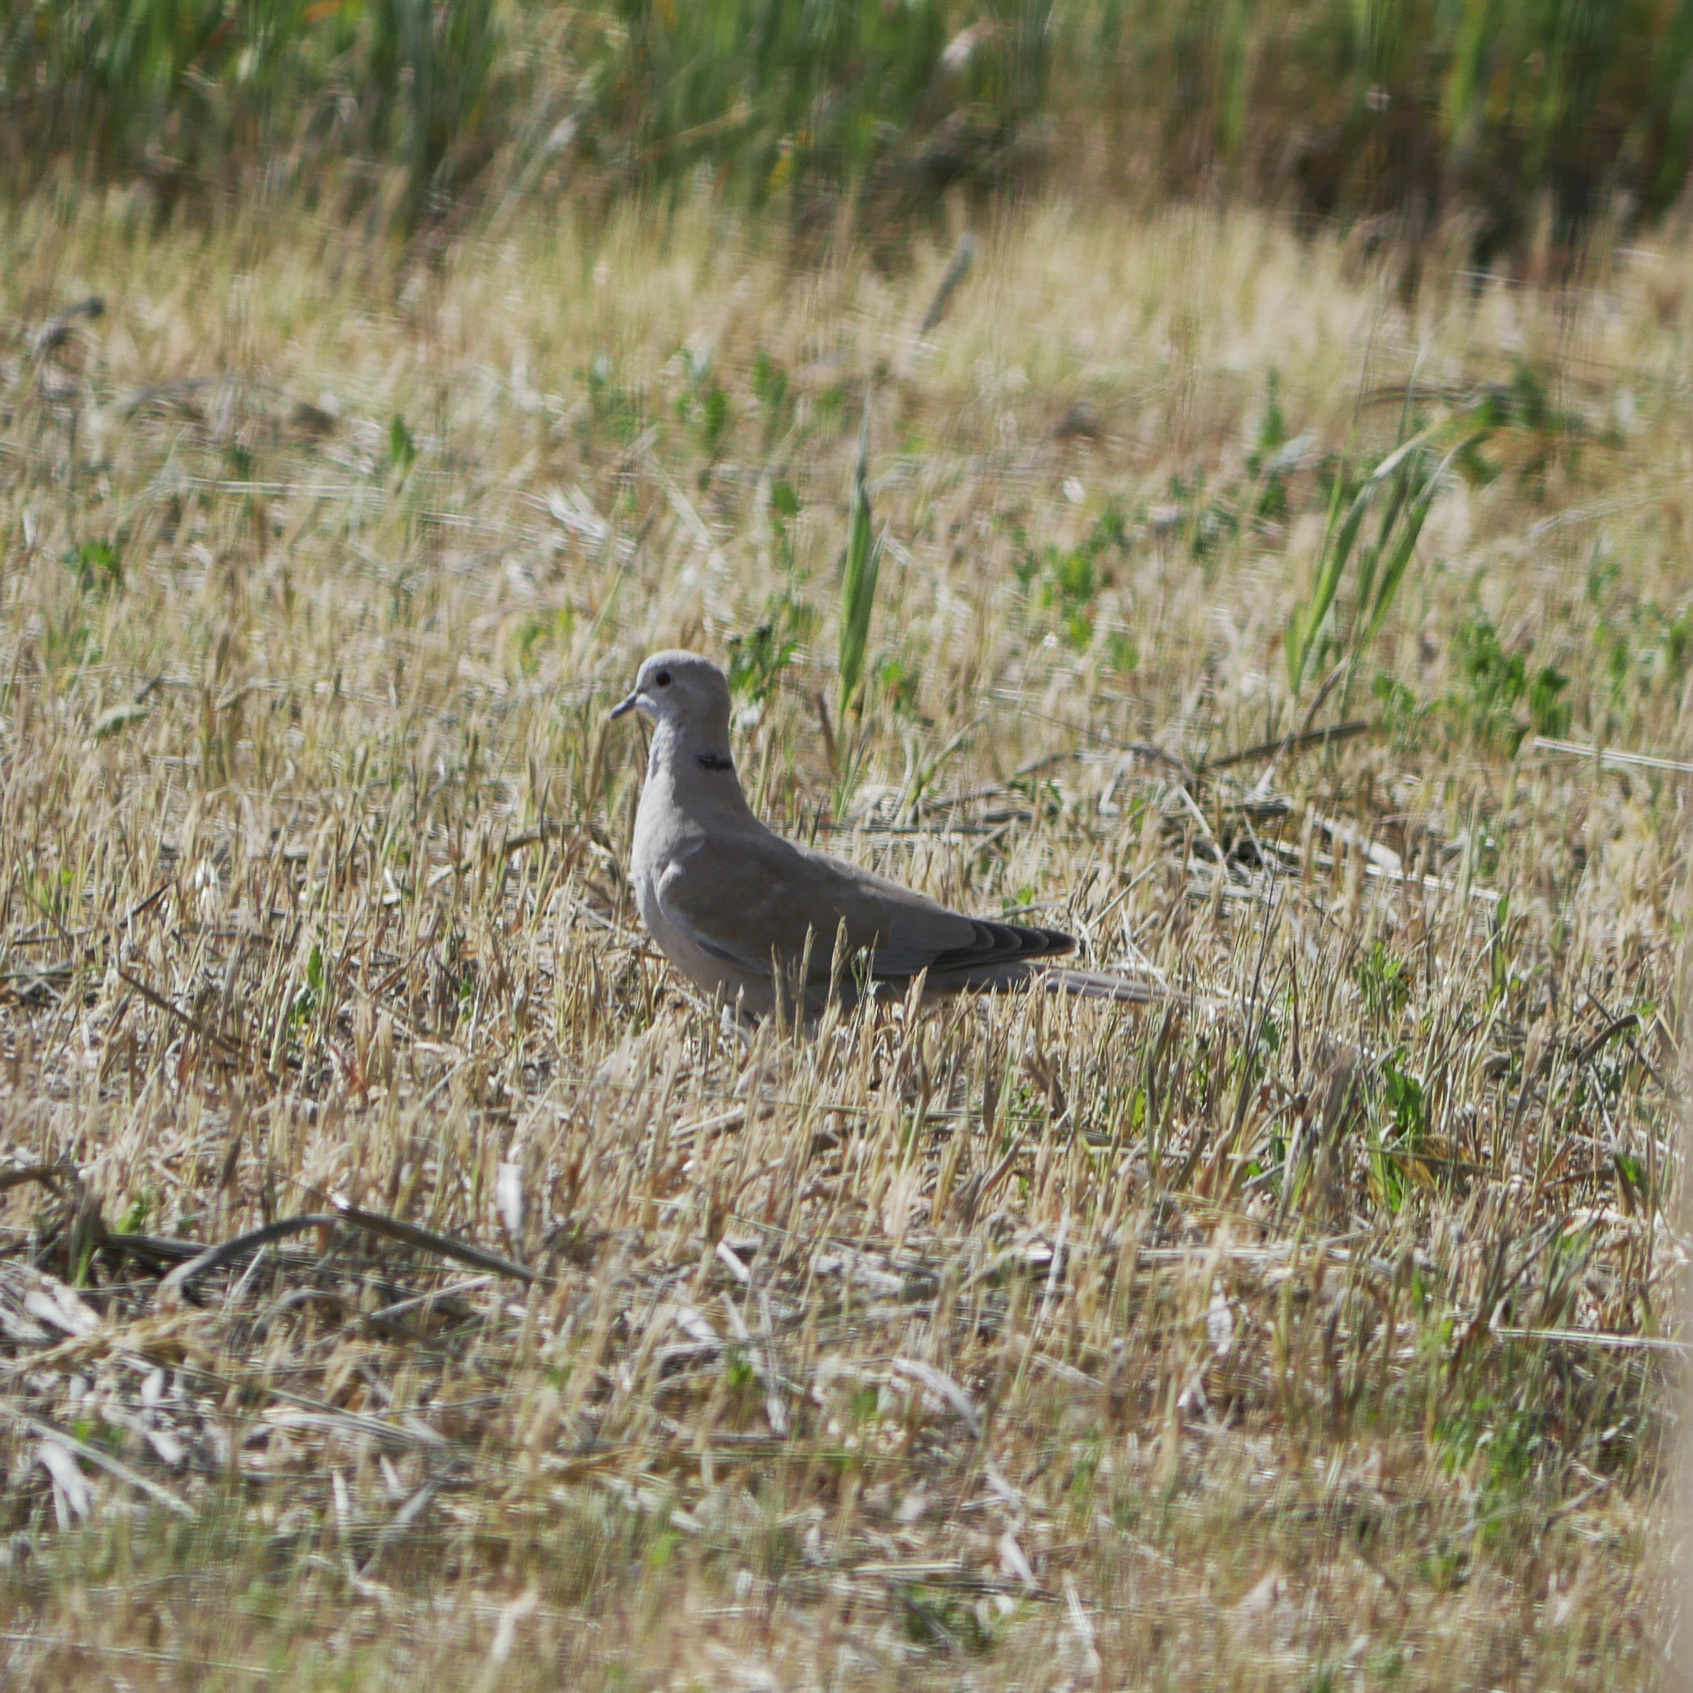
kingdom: Animalia
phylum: Chordata
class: Aves
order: Columbiformes
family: Columbidae
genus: Streptopelia
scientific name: Streptopelia decaocto
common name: Eurasian collared dove
